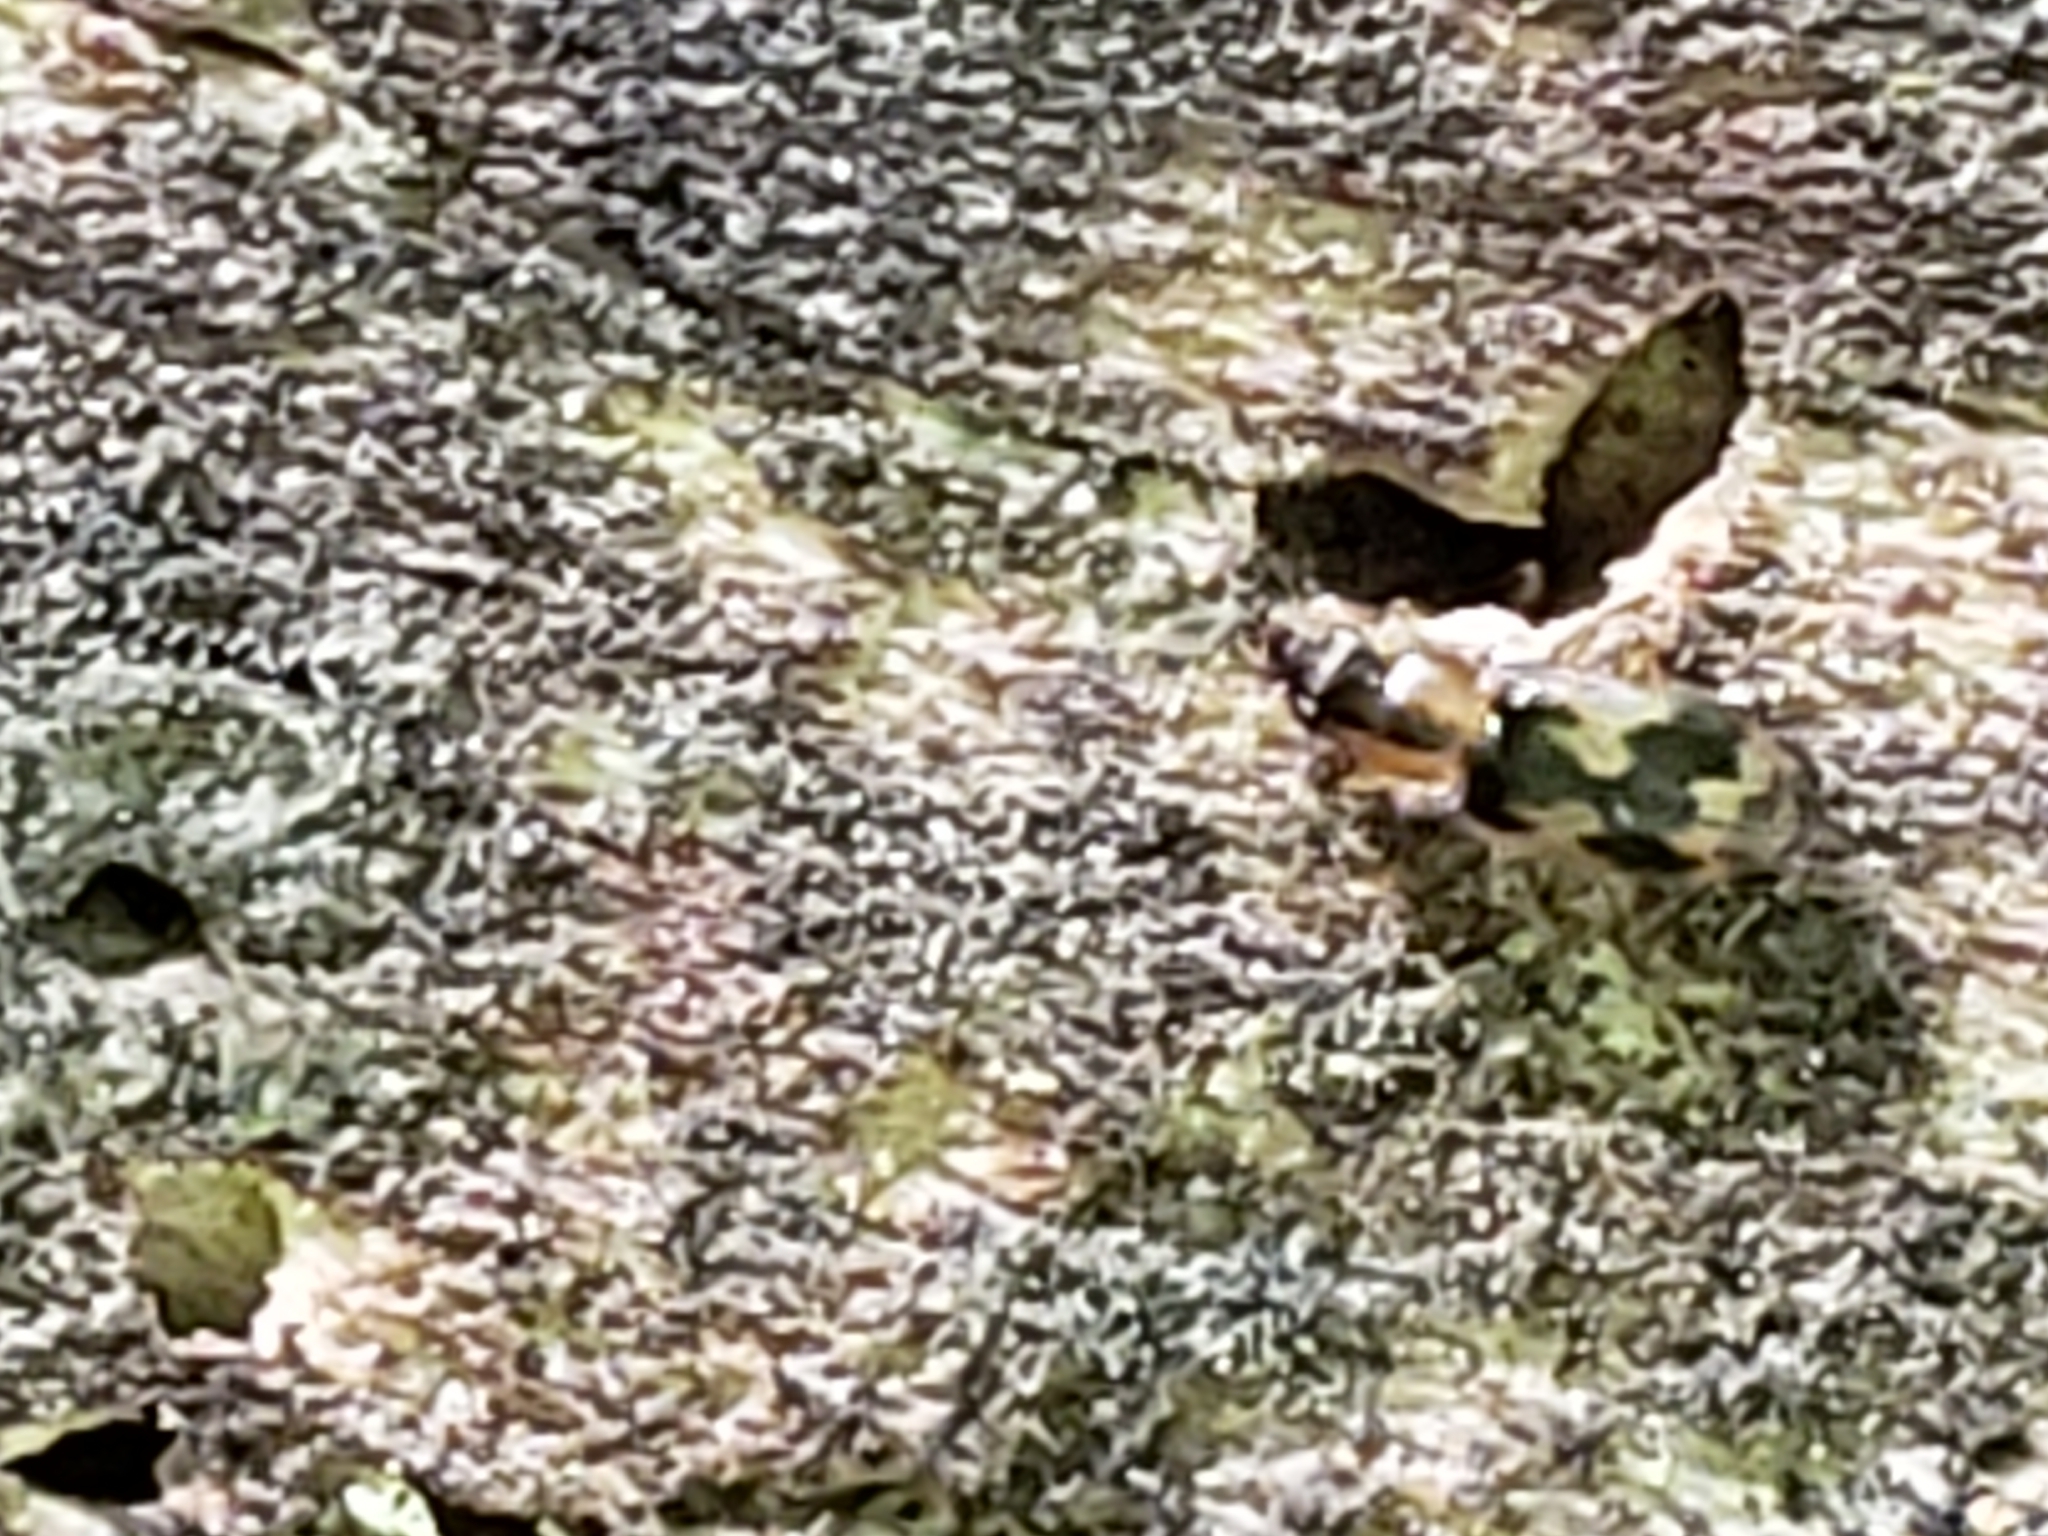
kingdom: Animalia
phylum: Arthropoda
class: Insecta
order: Coleoptera
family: Carabidae
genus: Phloeoxena
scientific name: Phloeoxena signata
